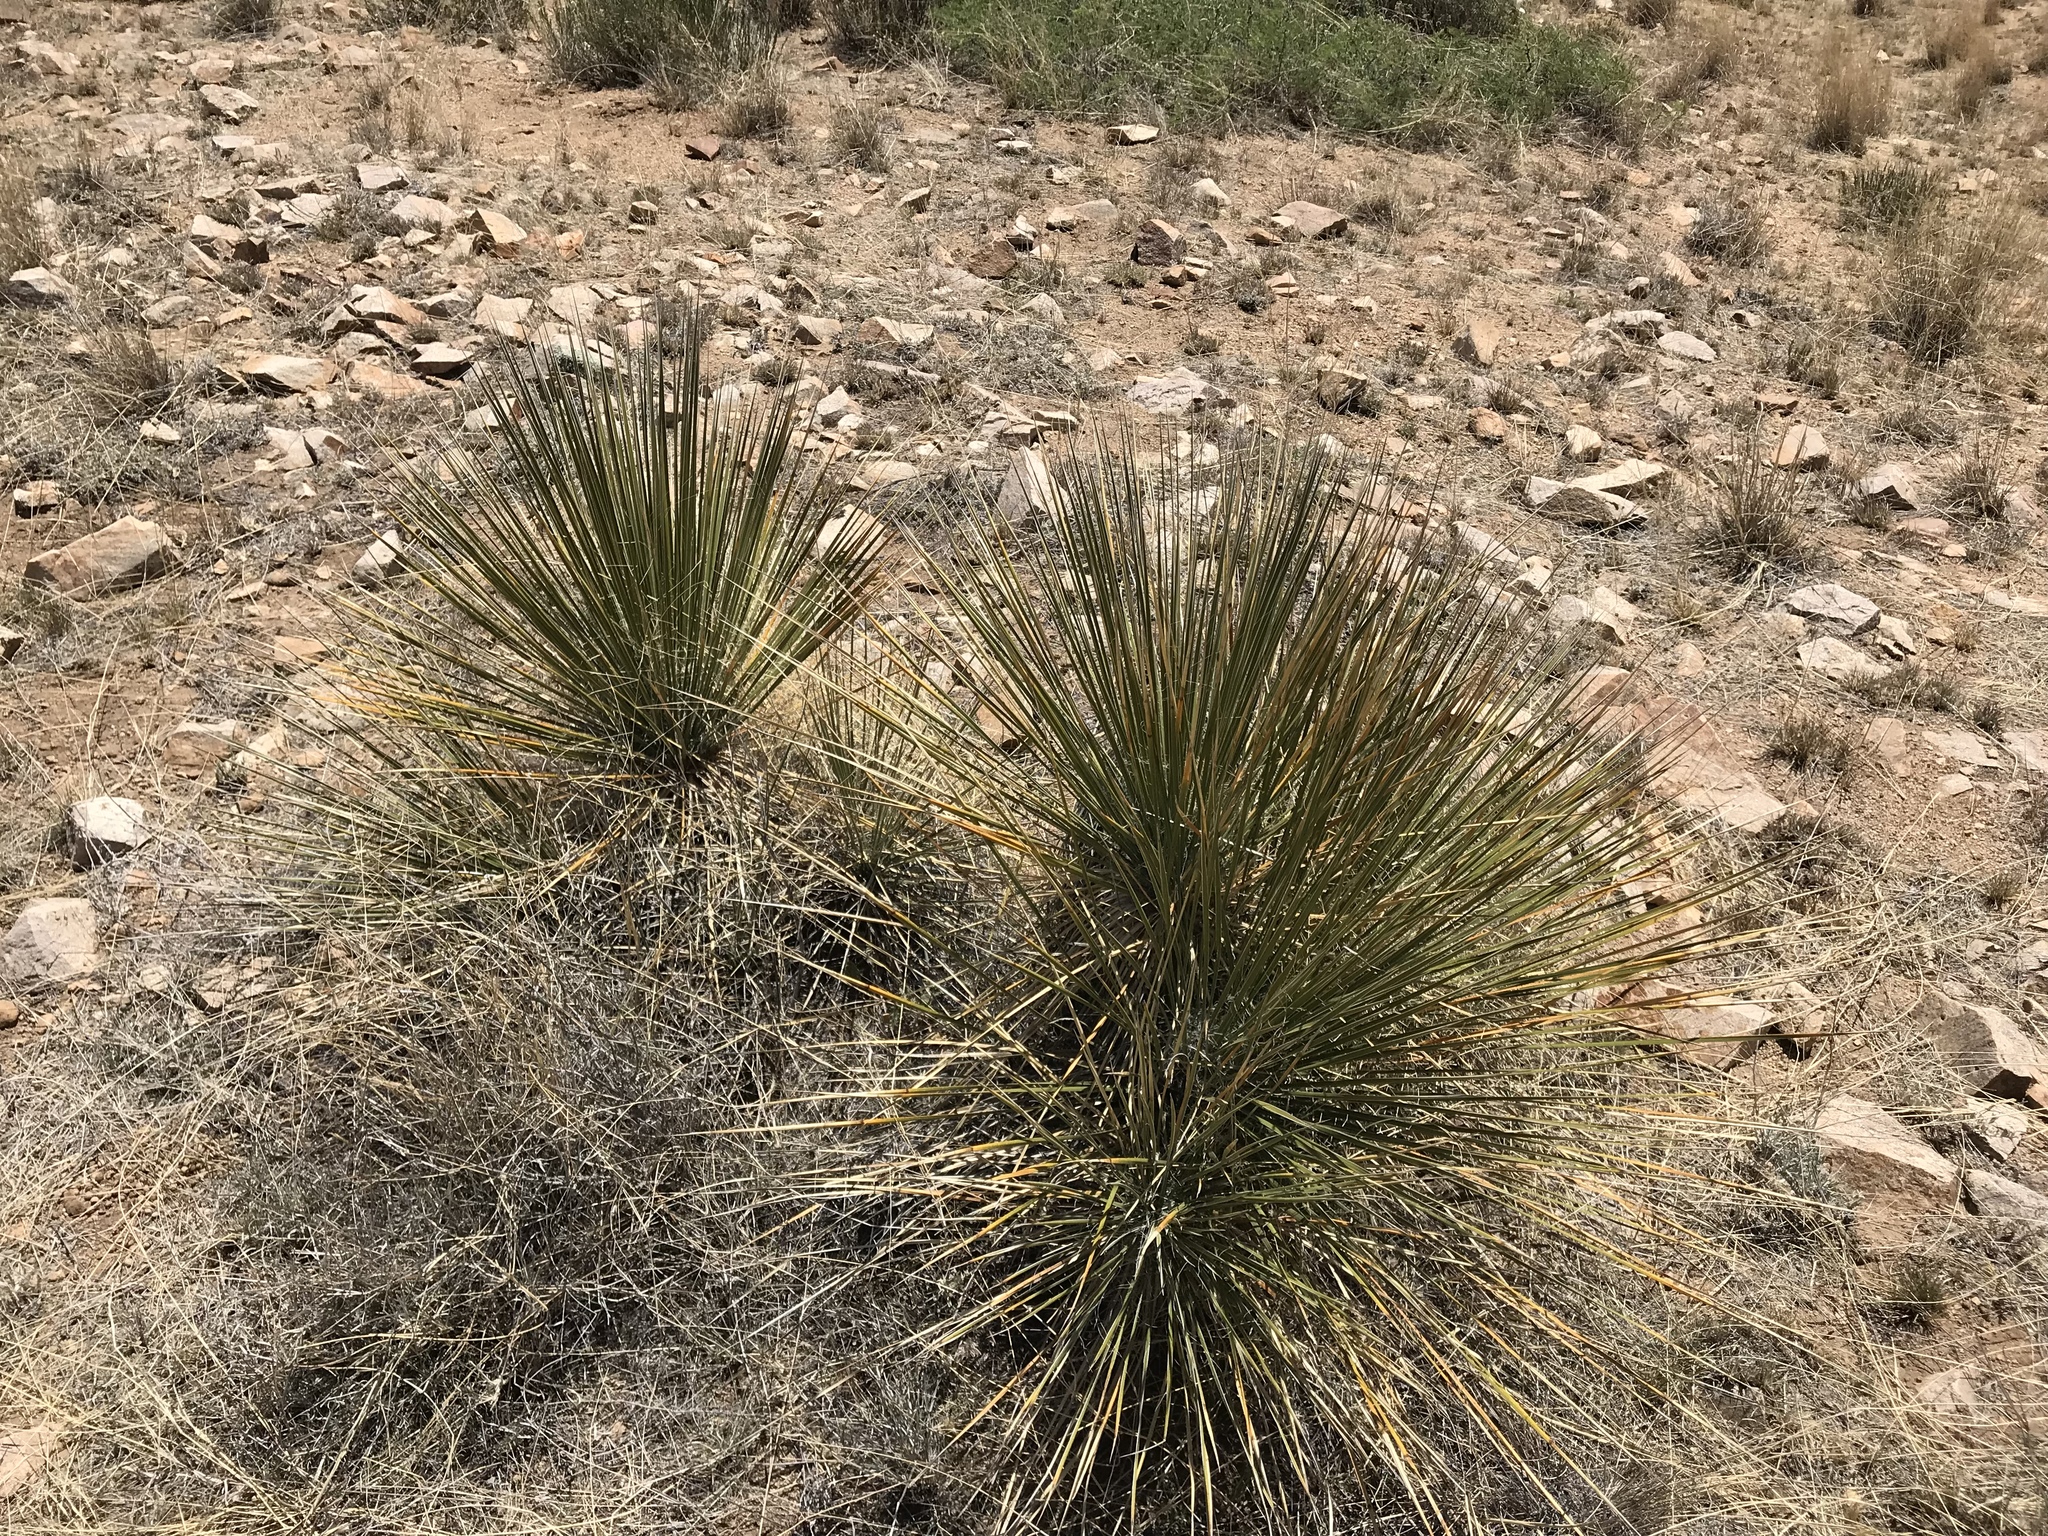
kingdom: Plantae
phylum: Tracheophyta
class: Liliopsida
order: Asparagales
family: Asparagaceae
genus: Yucca
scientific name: Yucca elata
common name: Palmella
